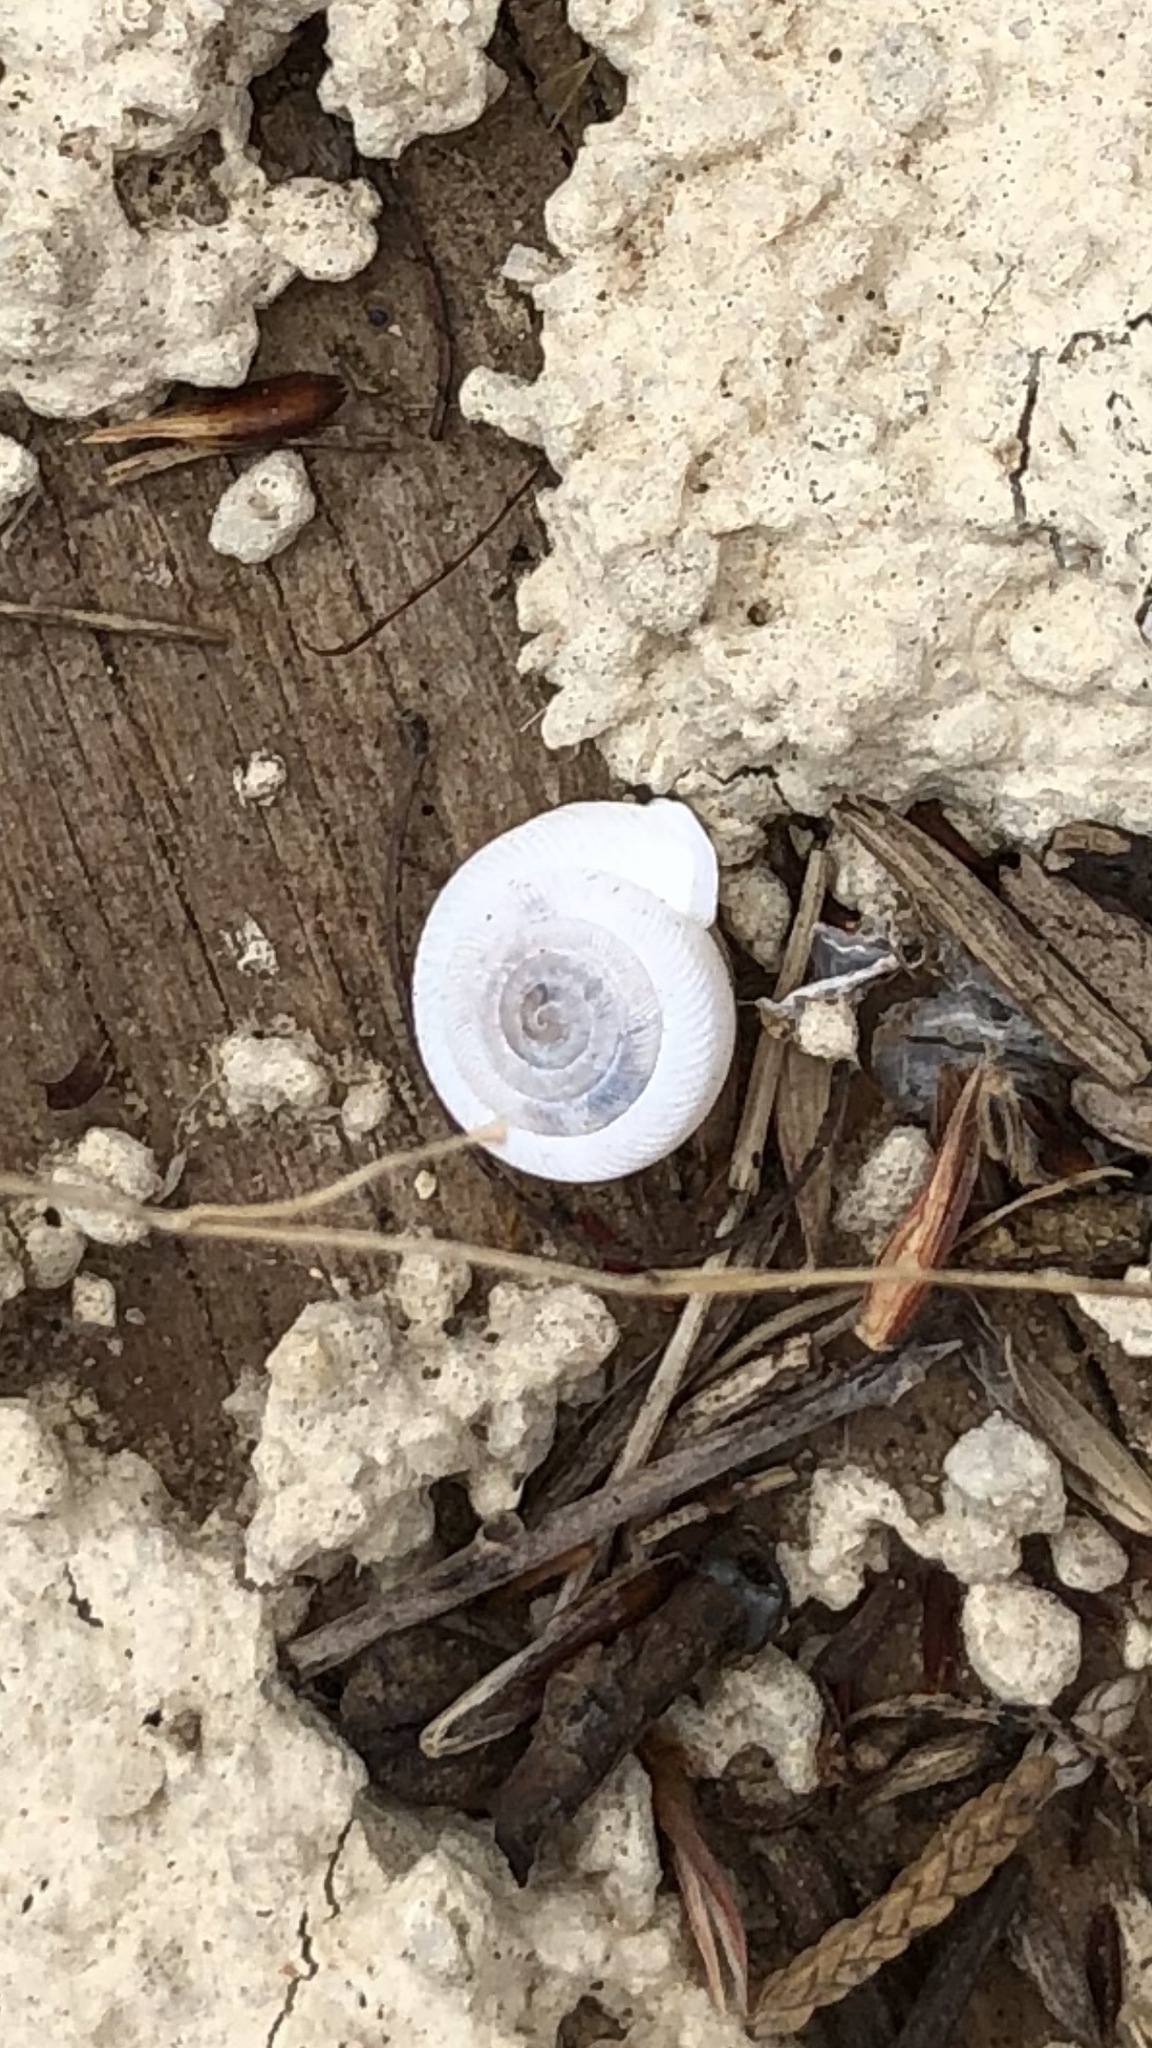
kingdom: Animalia
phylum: Mollusca
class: Gastropoda
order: Stylommatophora
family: Polygyridae
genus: Polygyra
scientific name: Polygyra cereolus
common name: Southern flatcone snail
